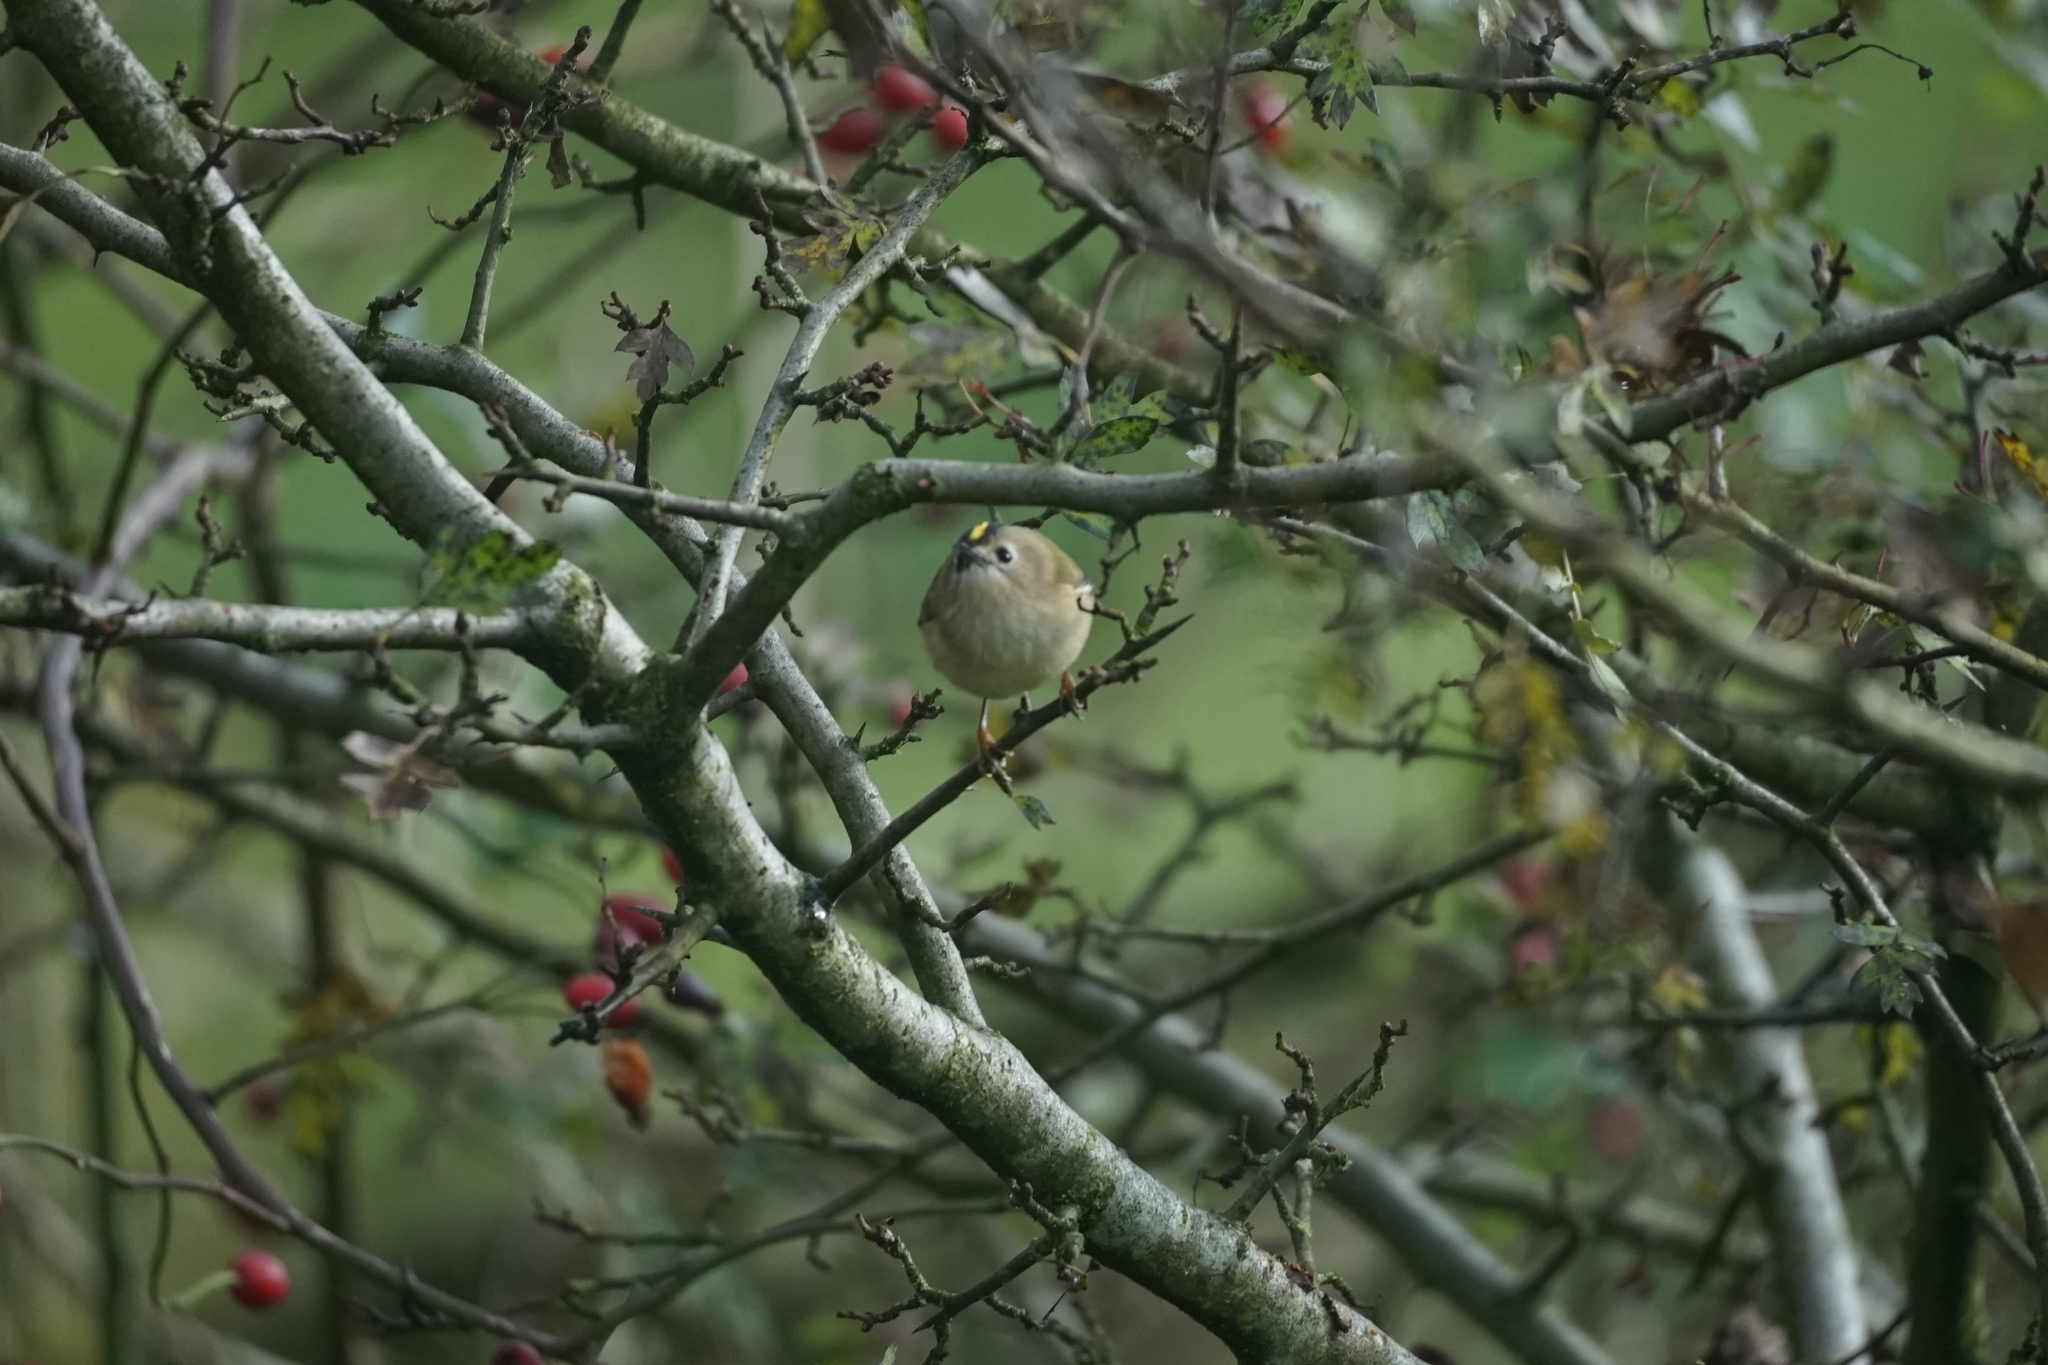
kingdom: Animalia
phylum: Chordata
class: Aves
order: Passeriformes
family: Regulidae
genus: Regulus
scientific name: Regulus regulus
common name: Goldcrest
